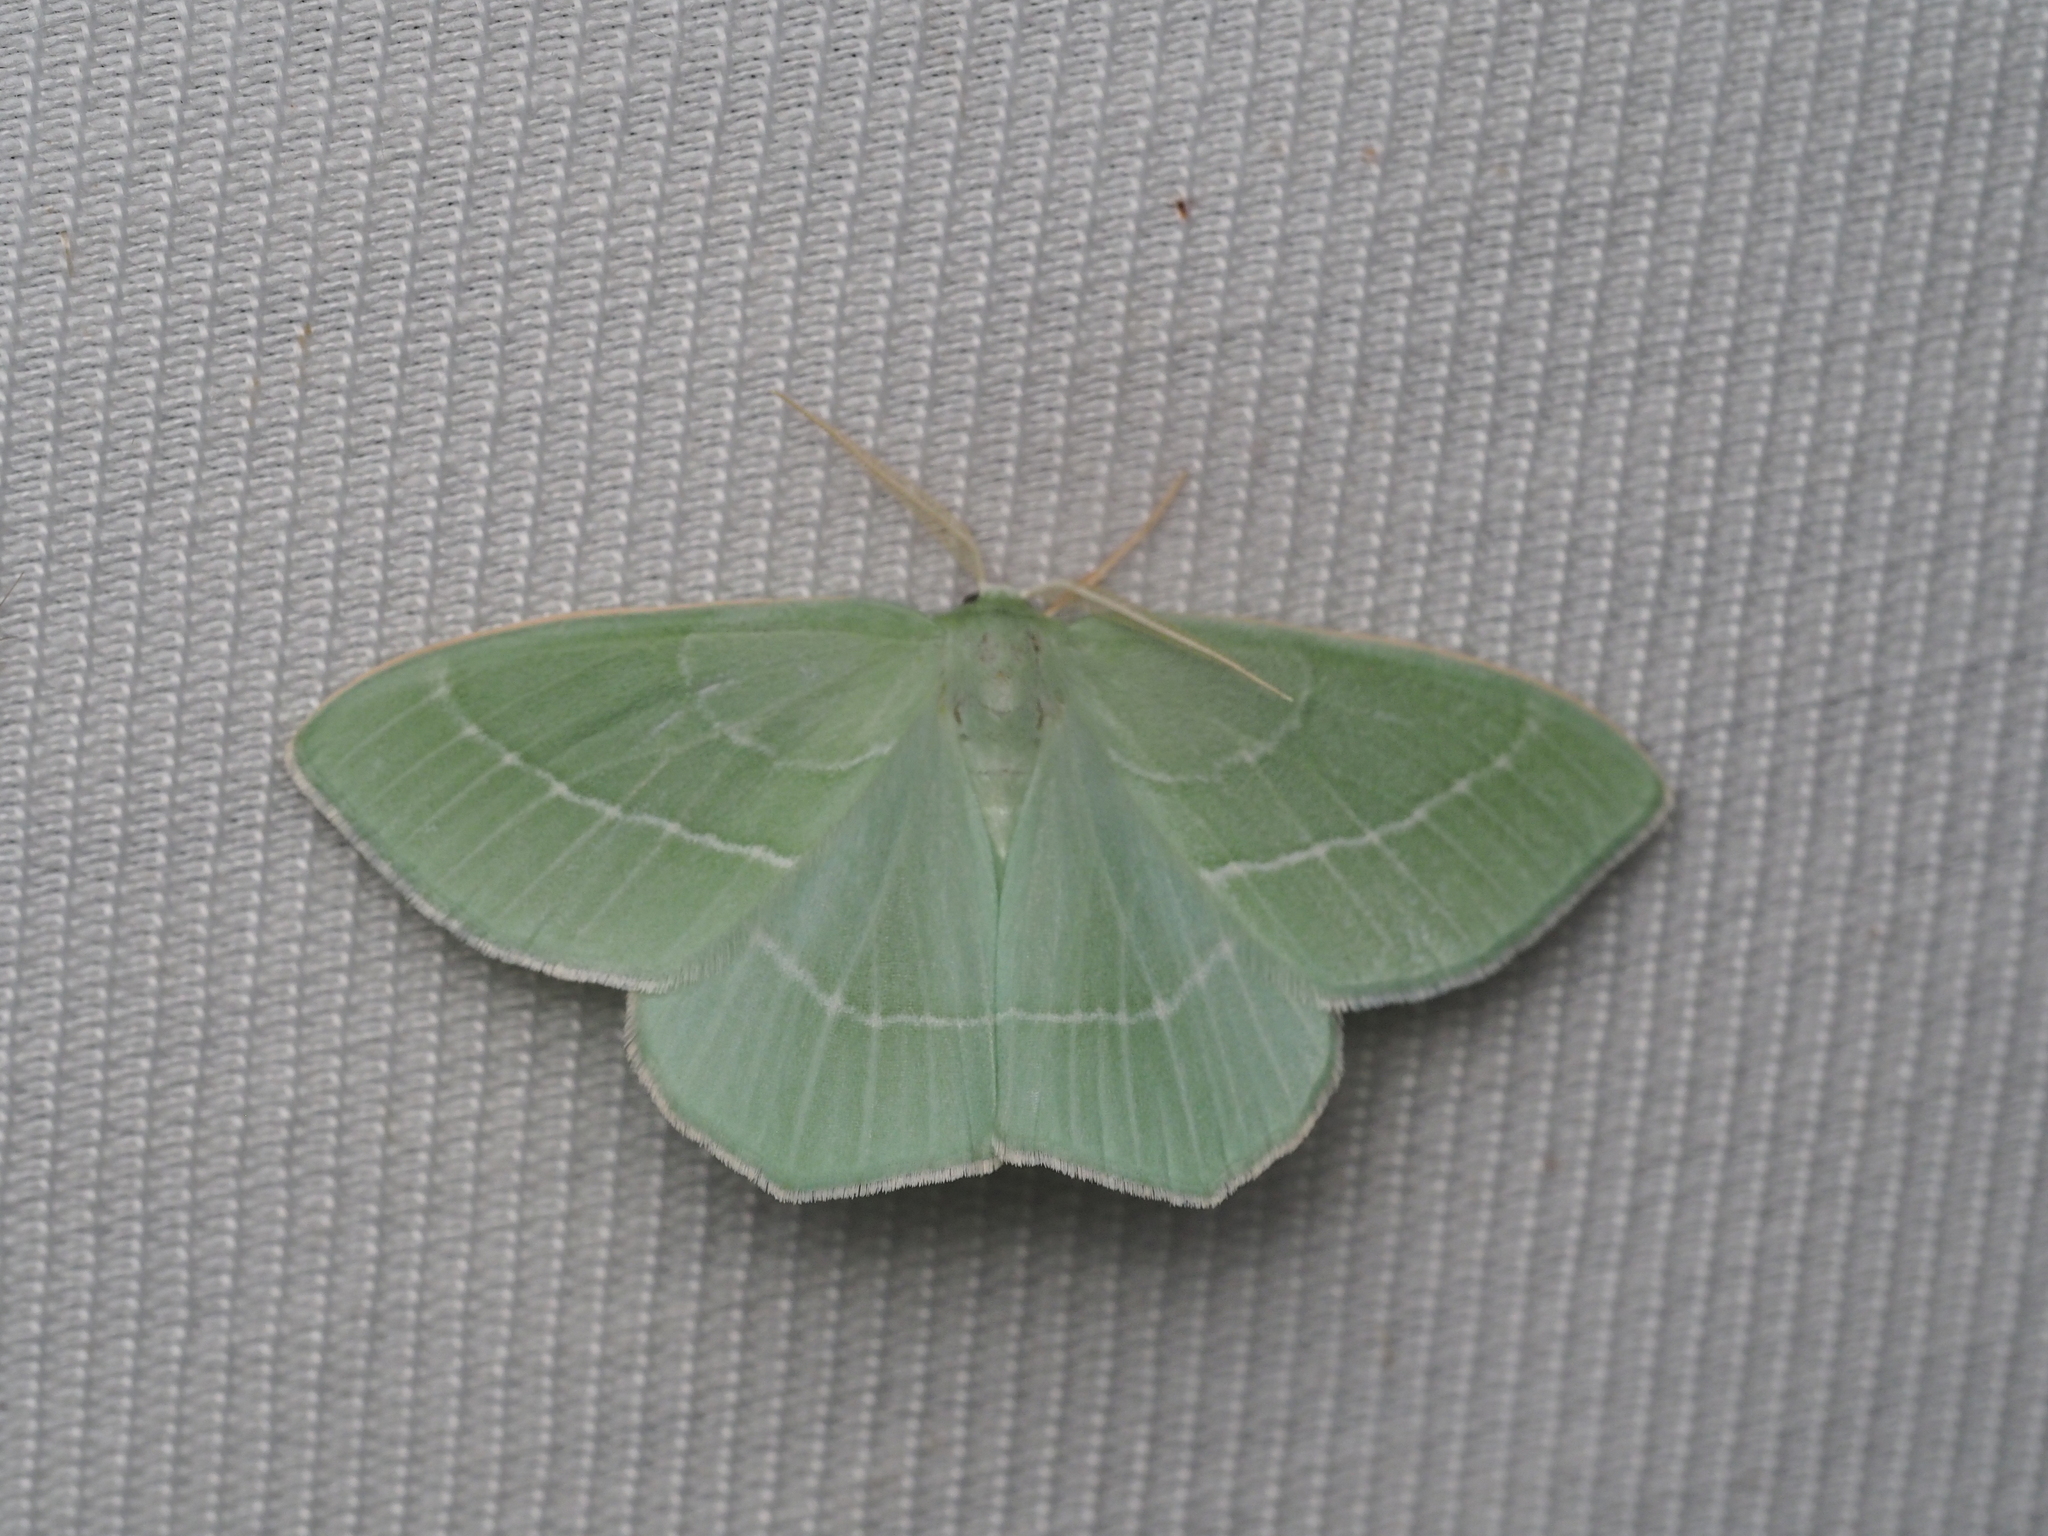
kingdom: Animalia
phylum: Arthropoda
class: Insecta
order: Lepidoptera
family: Geometridae
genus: Hemistola
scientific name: Hemistola chrysoprasaria
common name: Small emerald
